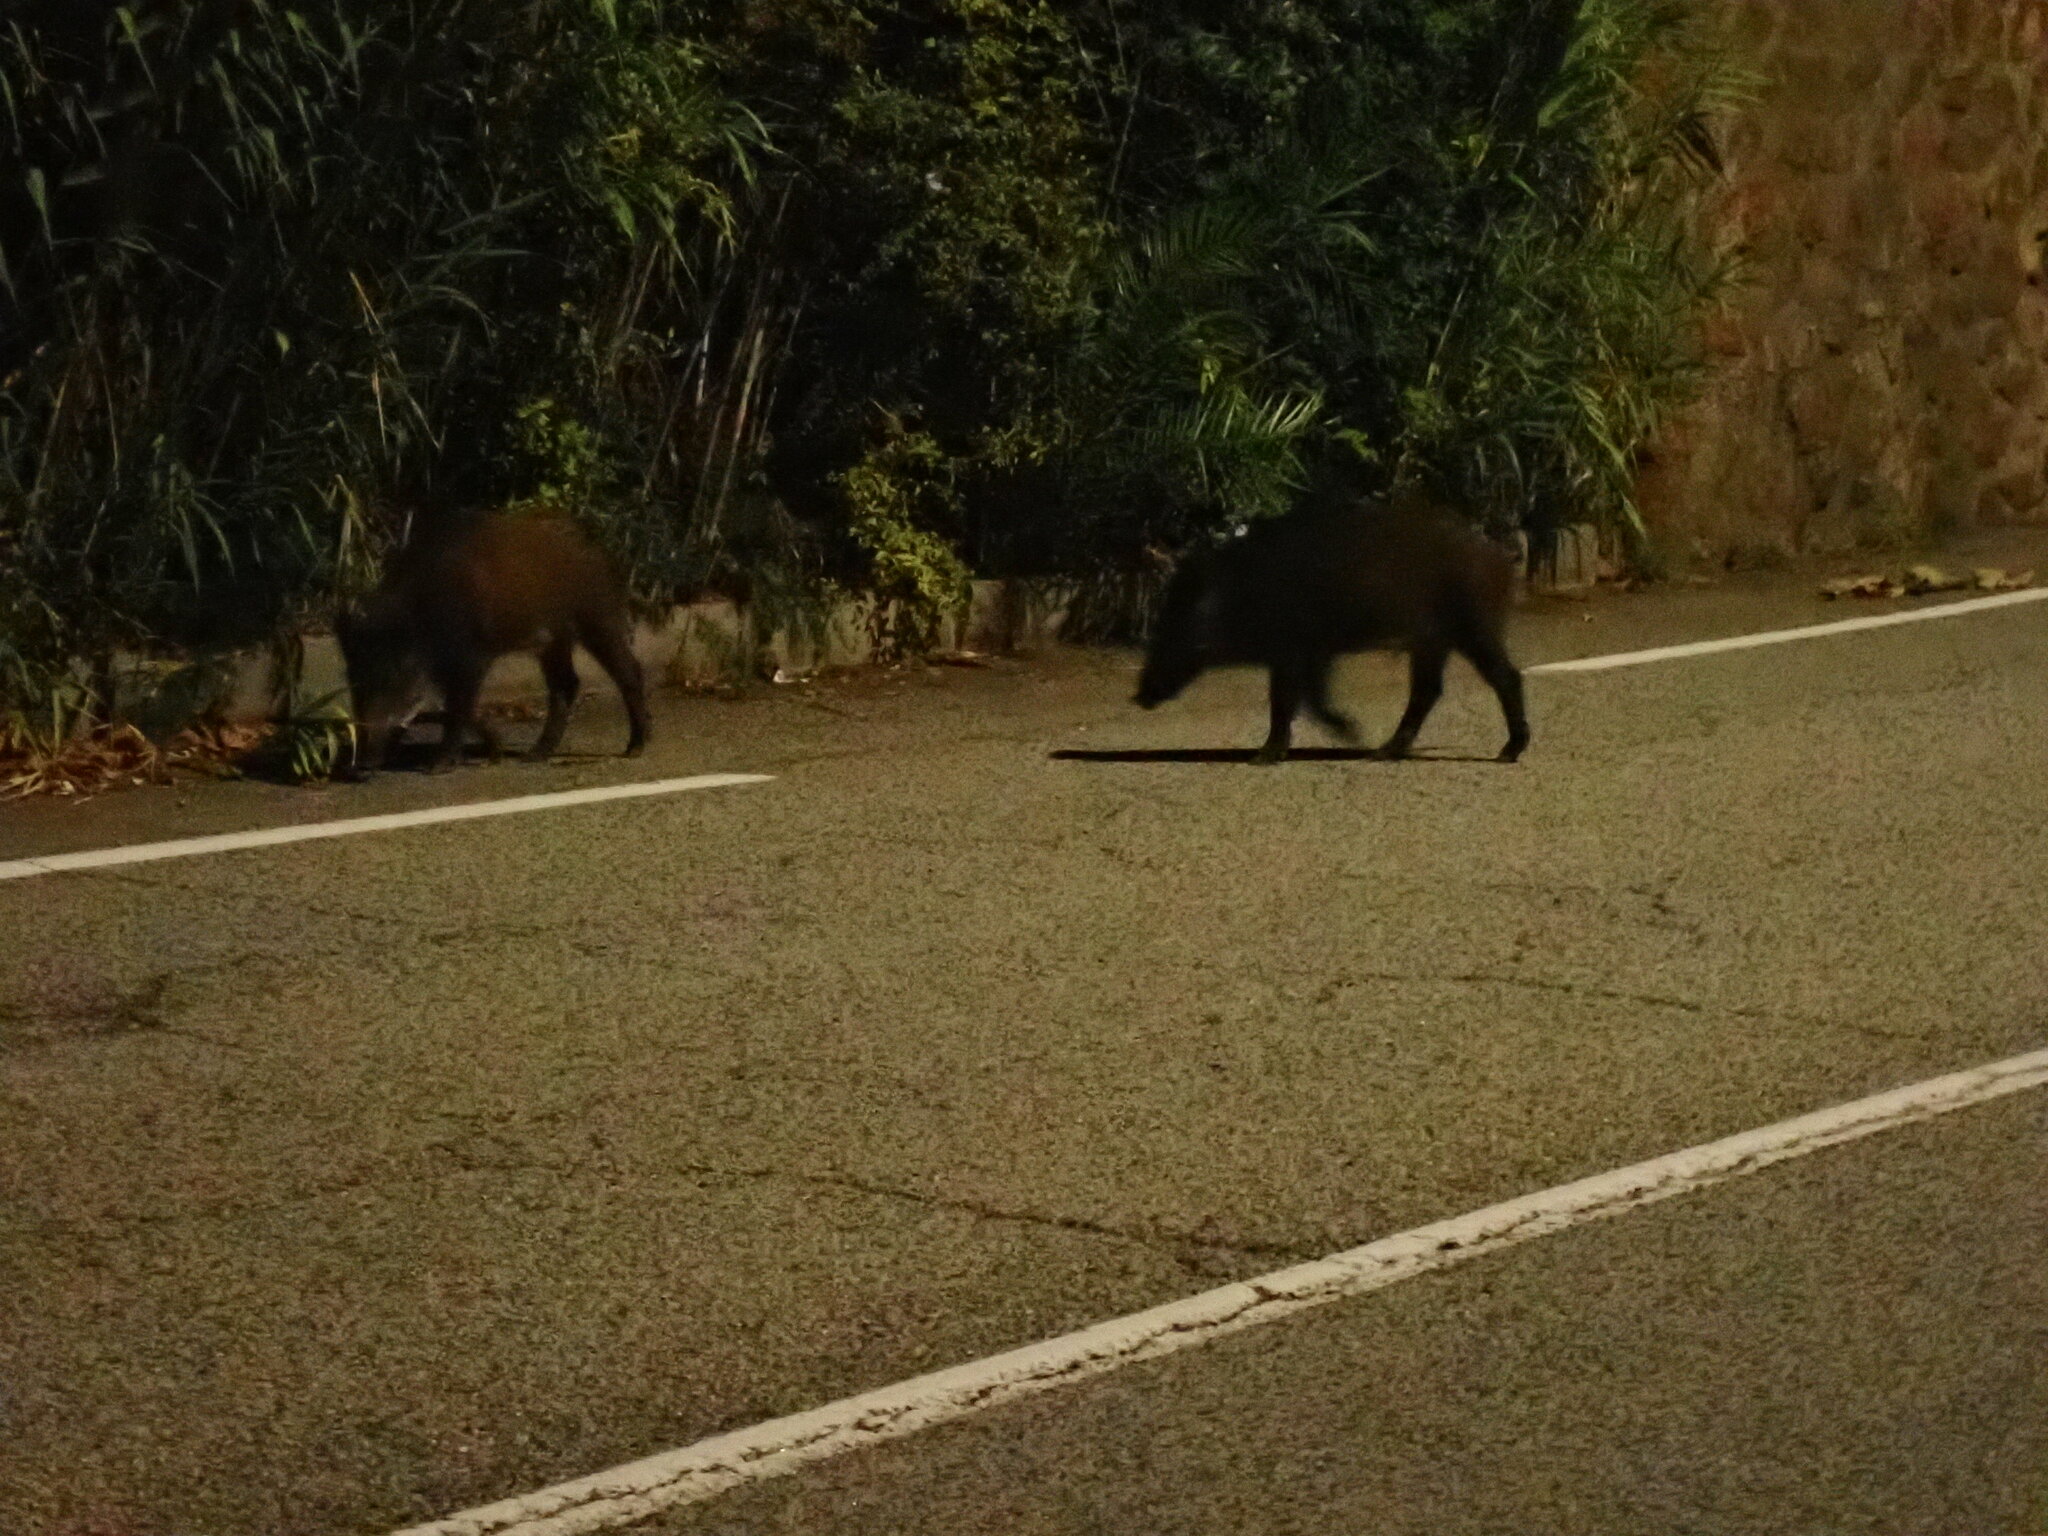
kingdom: Animalia
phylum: Chordata
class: Mammalia
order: Artiodactyla
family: Suidae
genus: Sus
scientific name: Sus scrofa
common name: Wild boar
